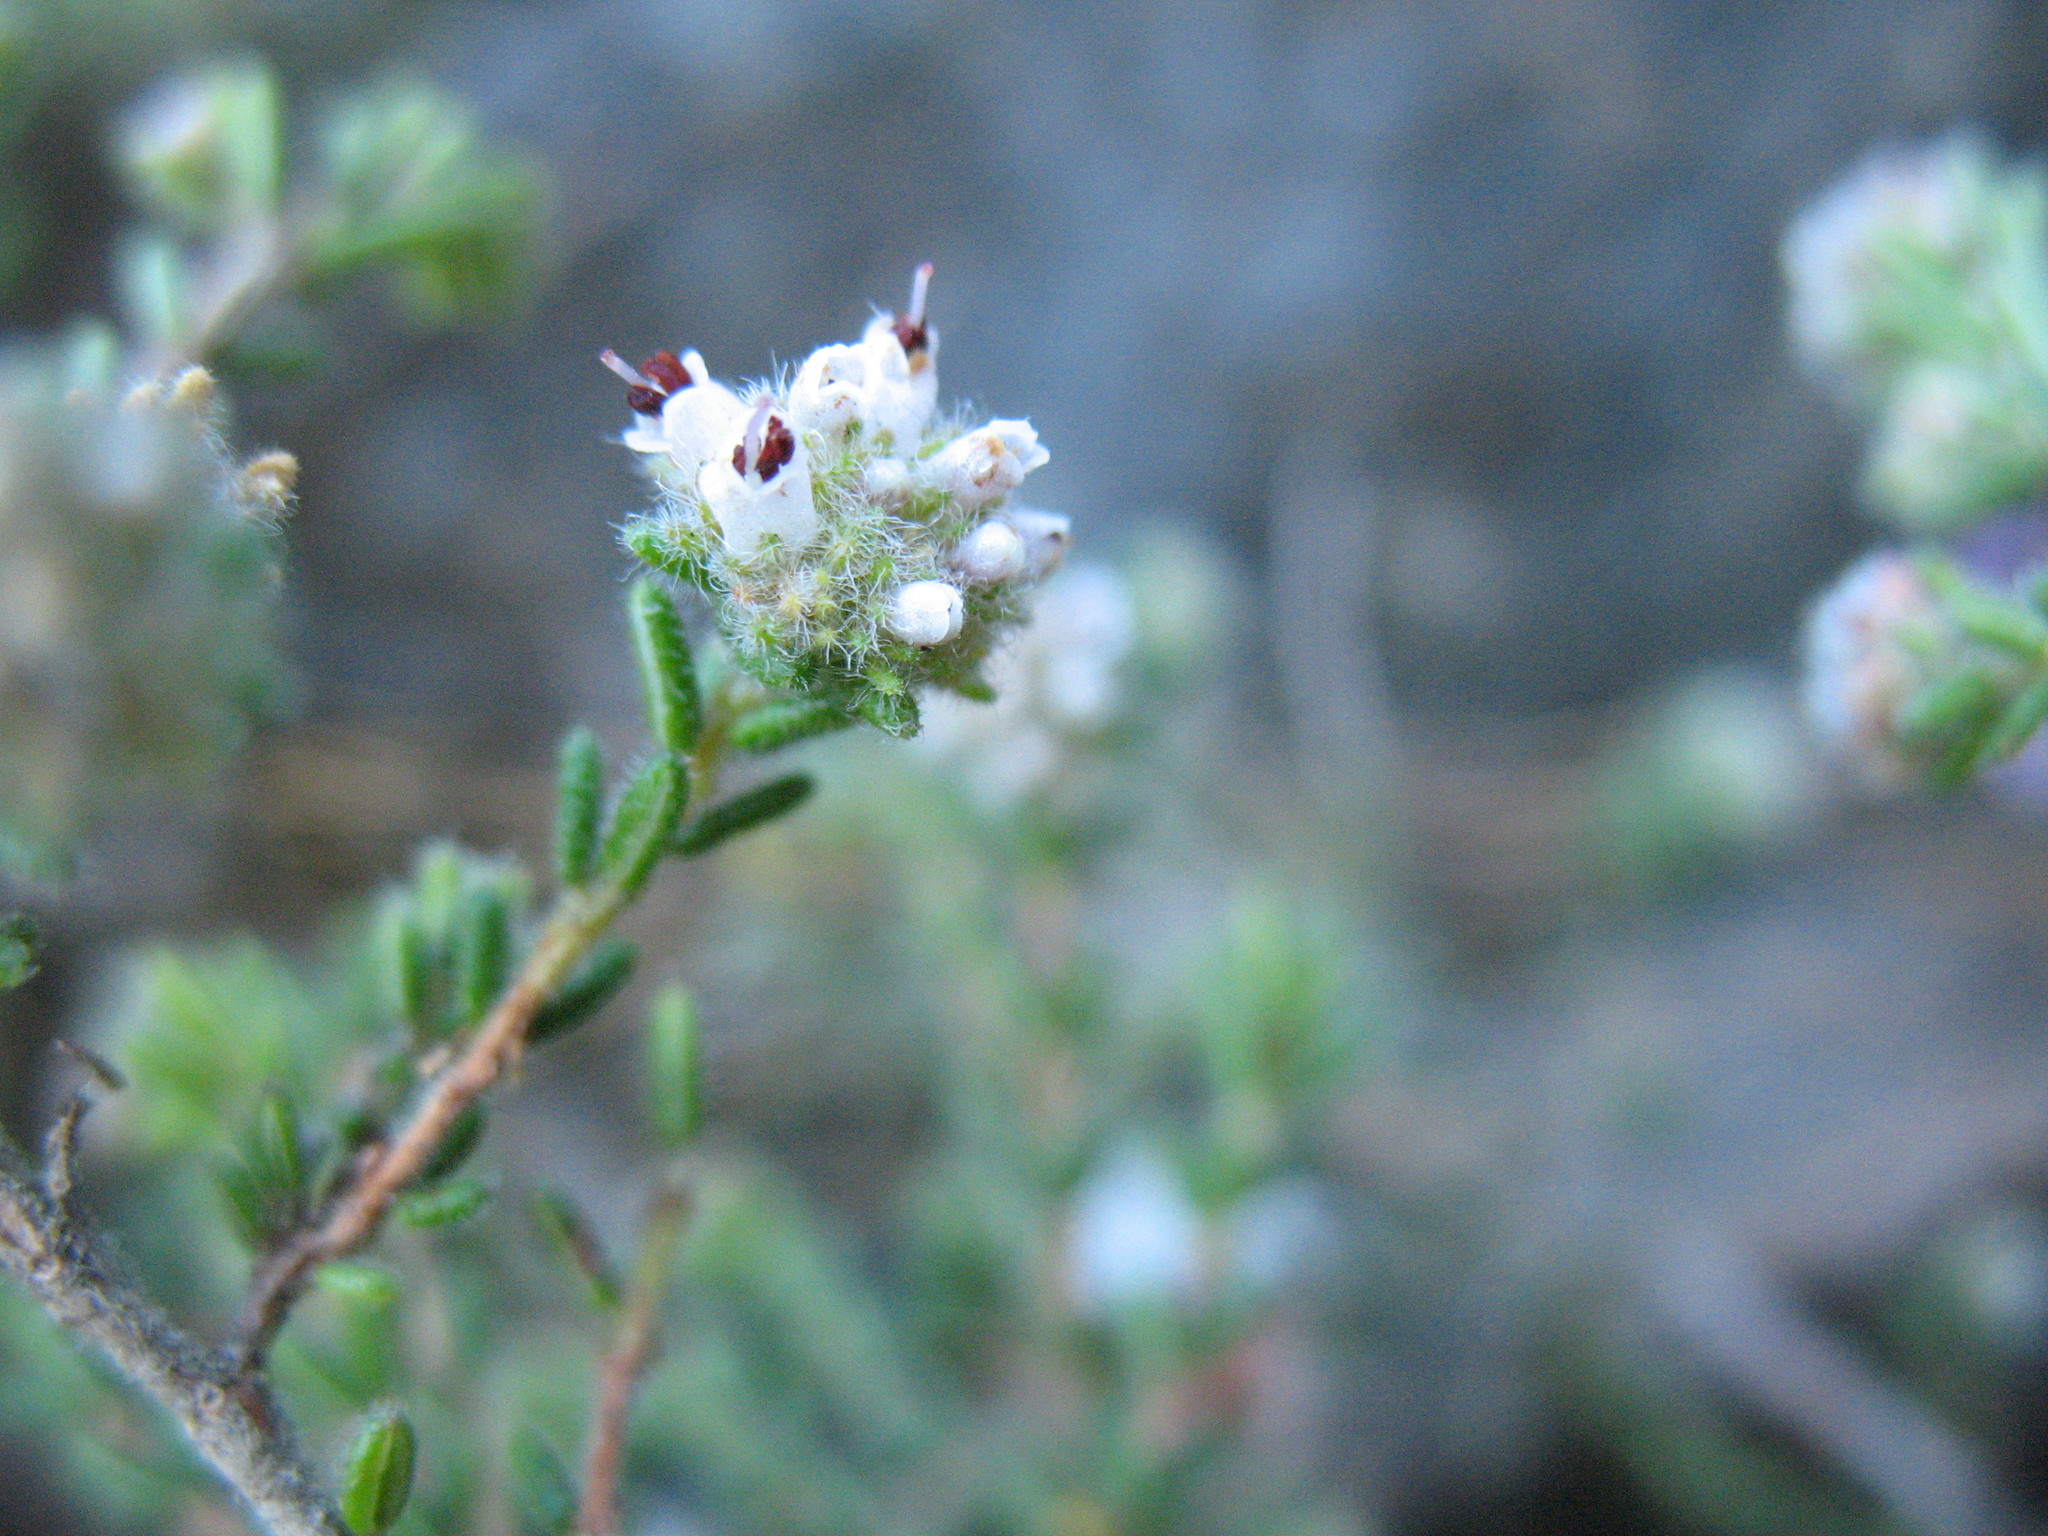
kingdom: Plantae
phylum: Tracheophyta
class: Magnoliopsida
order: Ericales
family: Ericaceae
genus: Erica
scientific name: Erica ericoides
